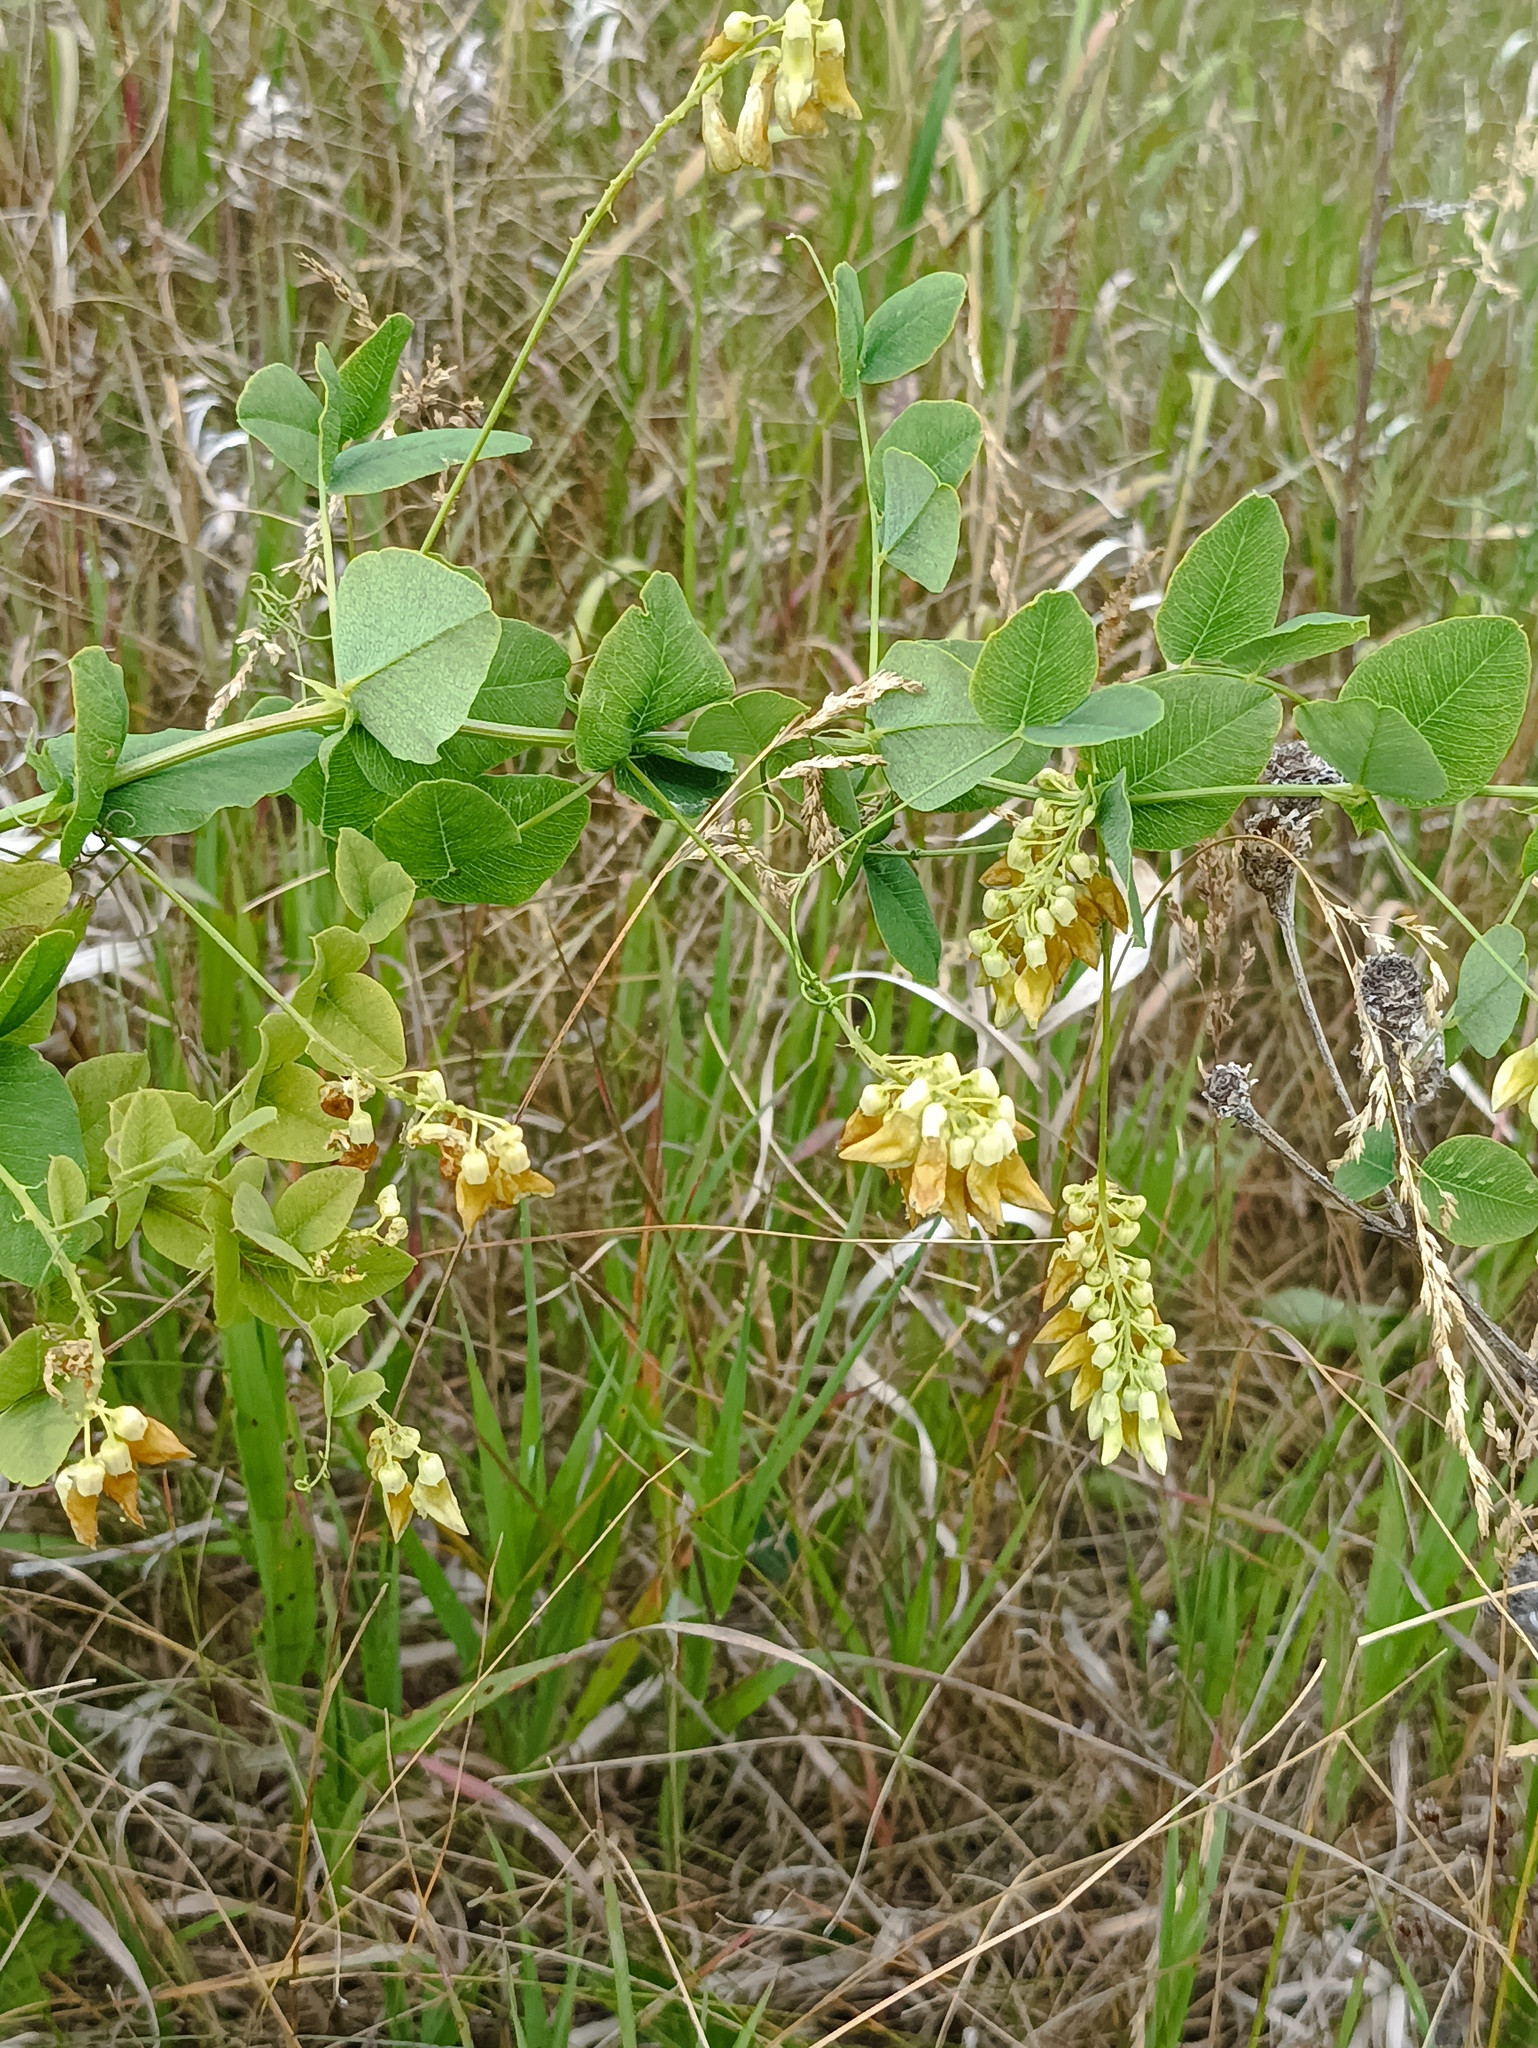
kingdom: Plantae
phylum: Tracheophyta
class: Magnoliopsida
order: Fabales
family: Fabaceae
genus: Vicia
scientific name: Vicia pisiformis
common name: Pale-flower vetch
